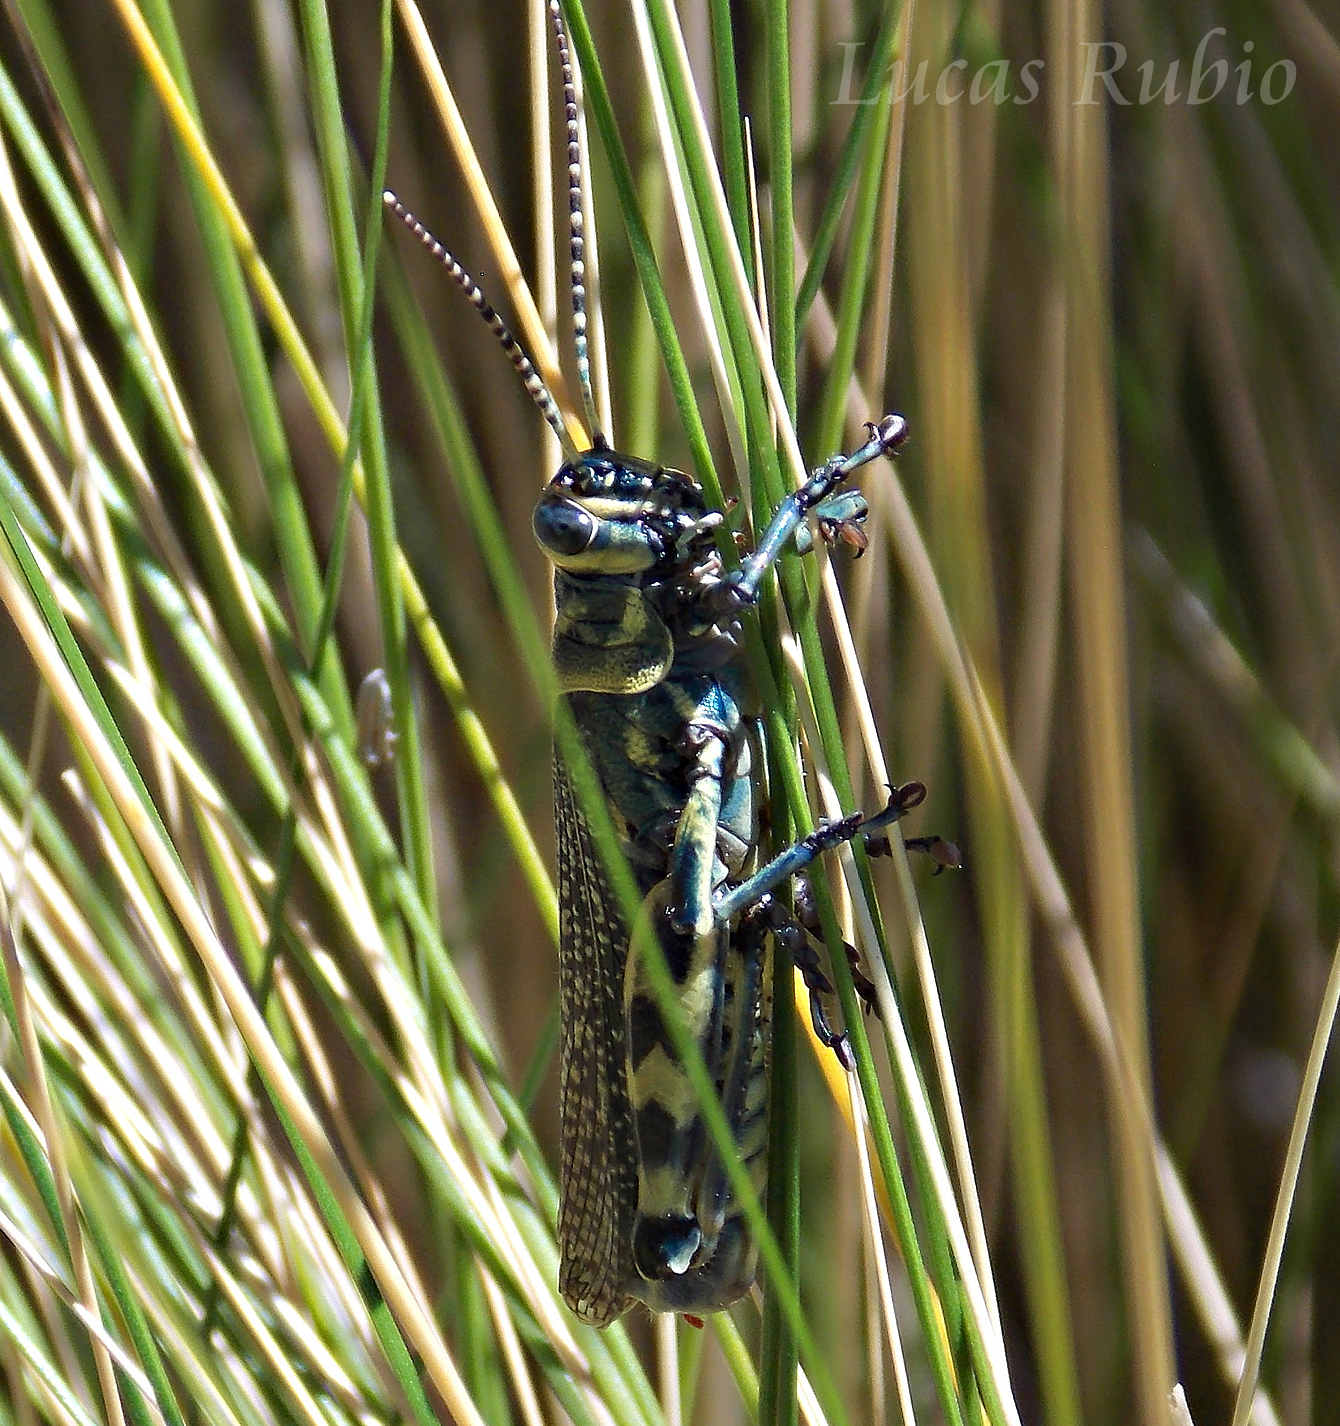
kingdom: Animalia
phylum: Arthropoda
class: Insecta
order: Orthoptera
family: Romaleidae
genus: Diponthus
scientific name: Diponthus argentinus
